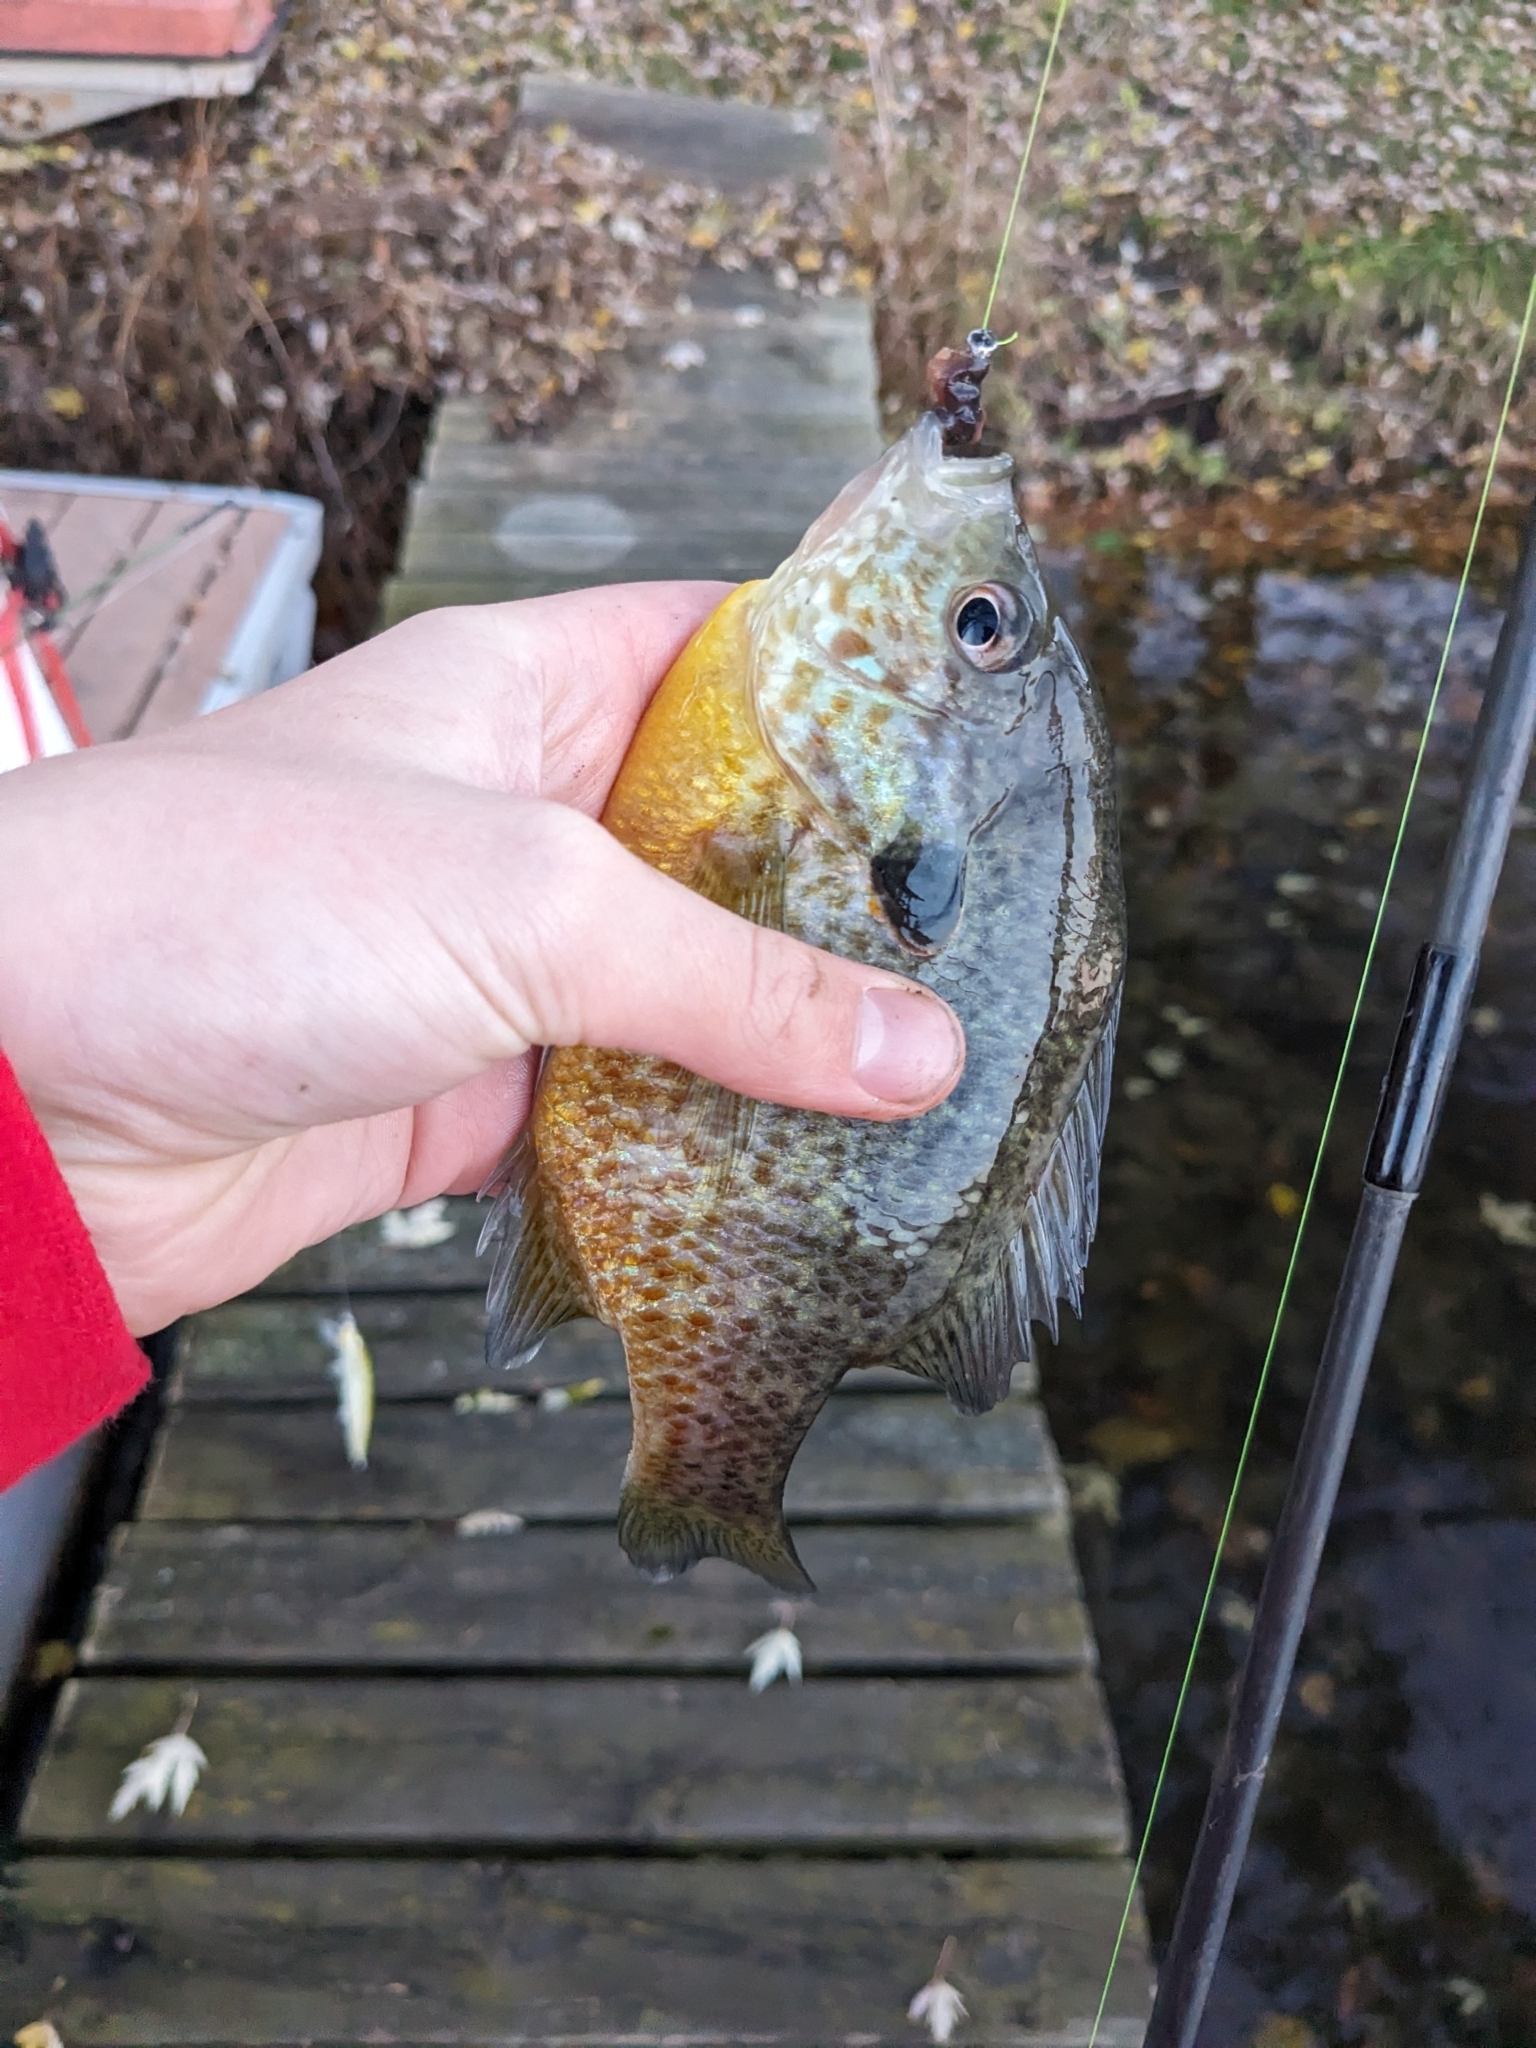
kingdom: Animalia
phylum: Chordata
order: Perciformes
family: Centrarchidae
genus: Lepomis
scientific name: Lepomis
